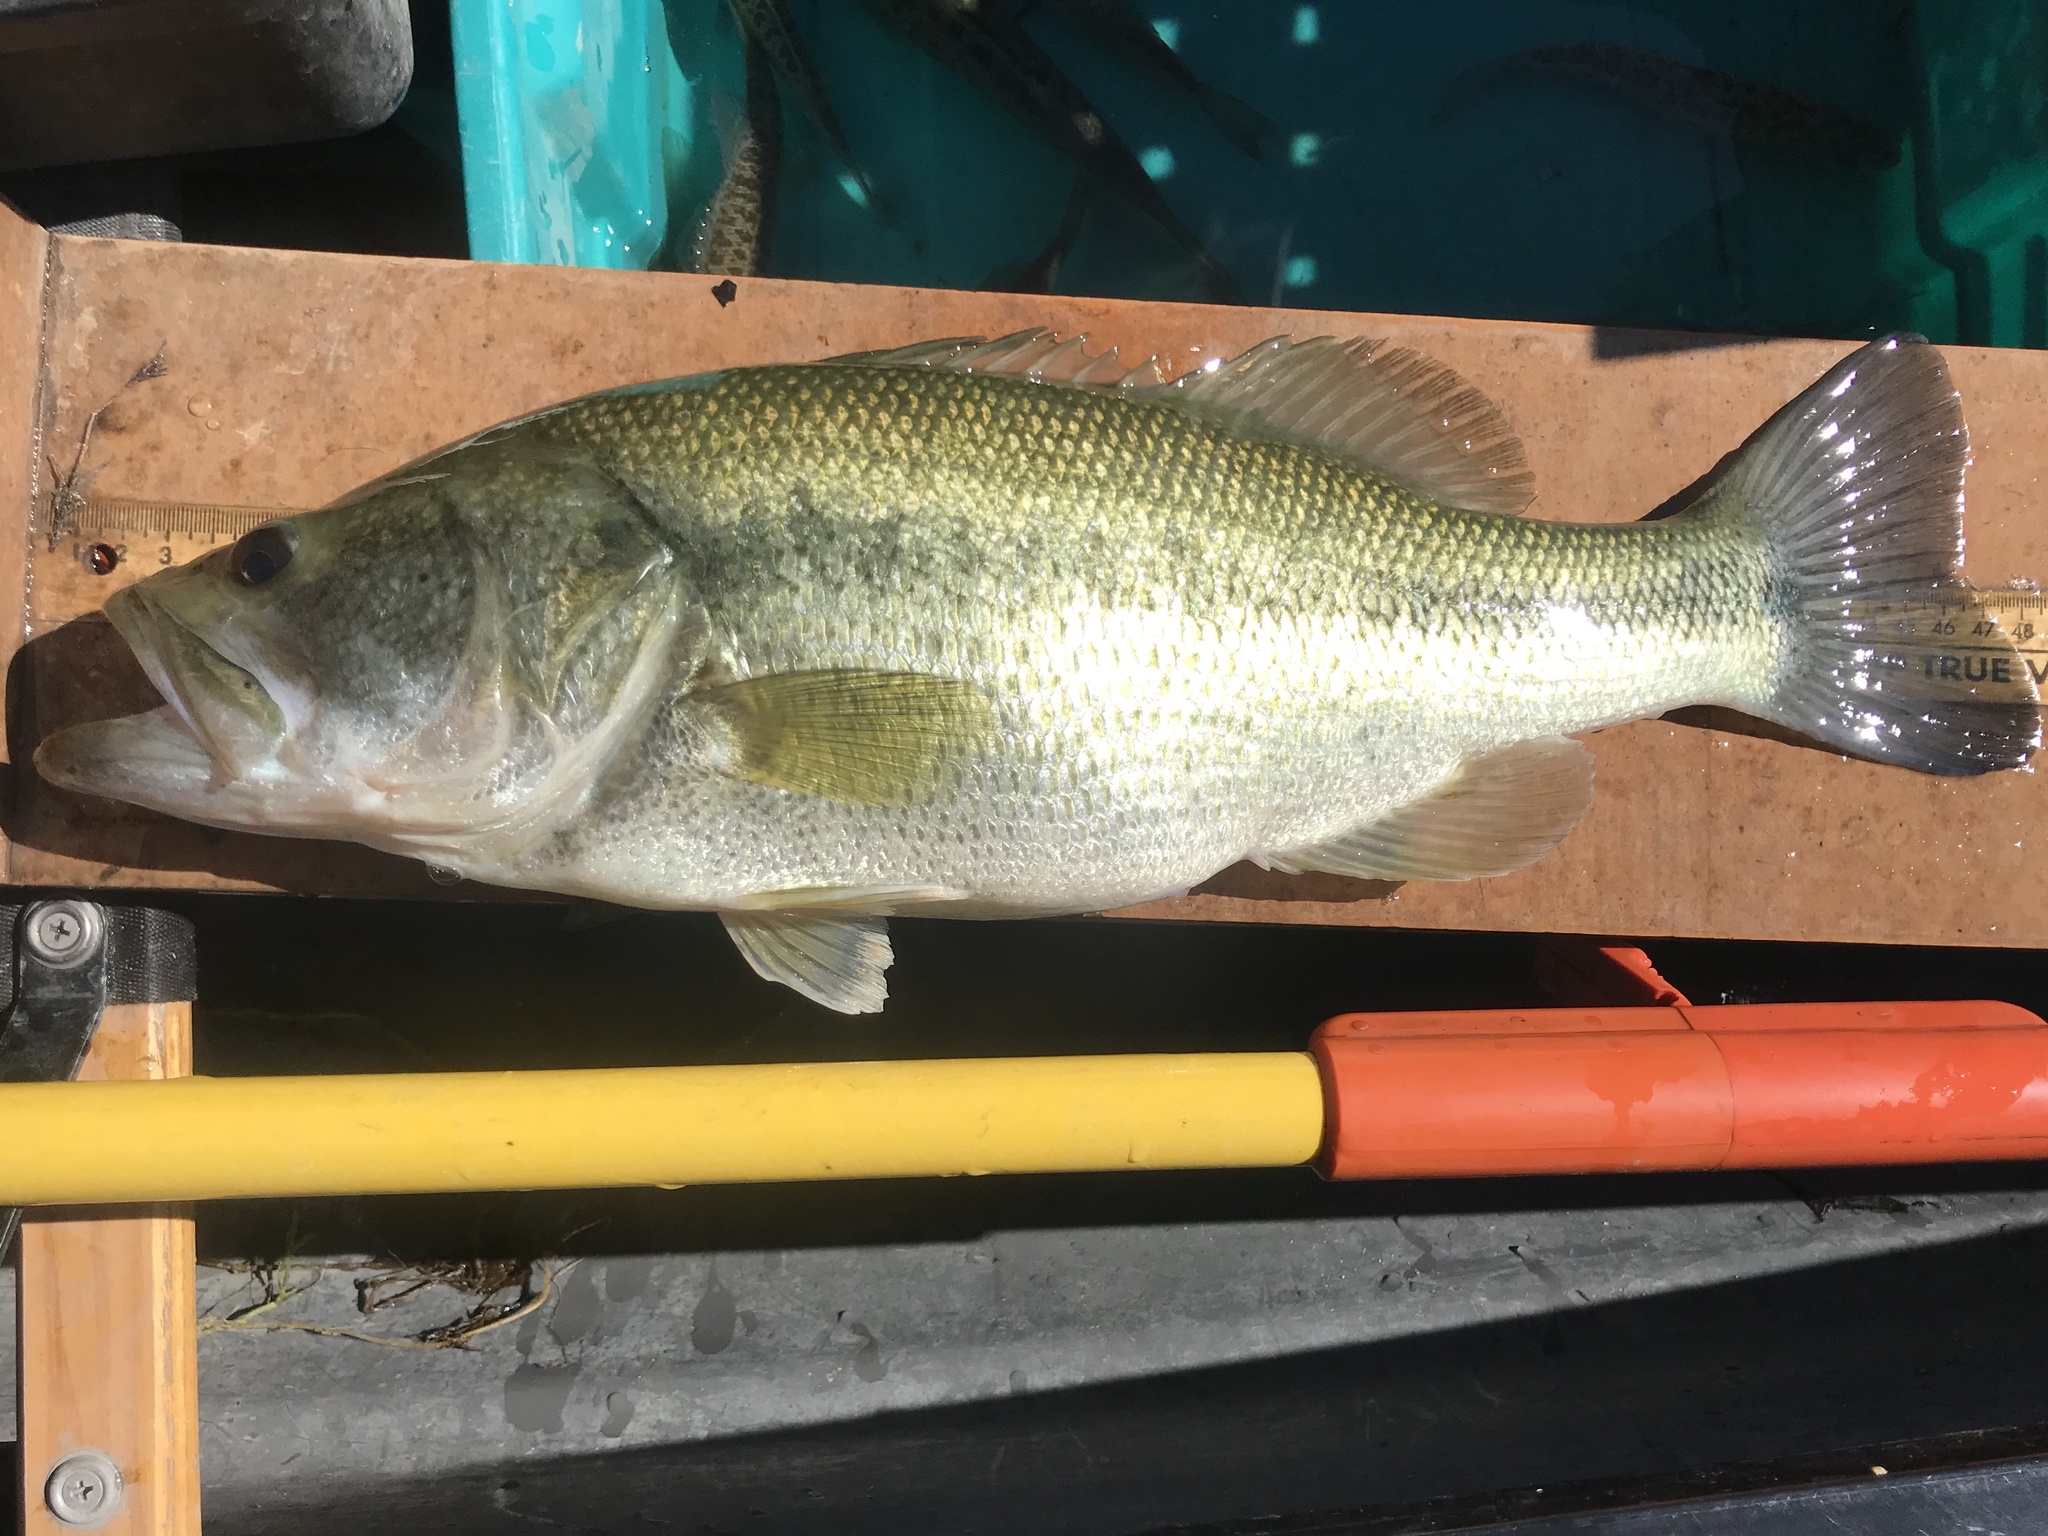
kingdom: Animalia
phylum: Chordata
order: Perciformes
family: Centrarchidae
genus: Micropterus
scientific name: Micropterus
